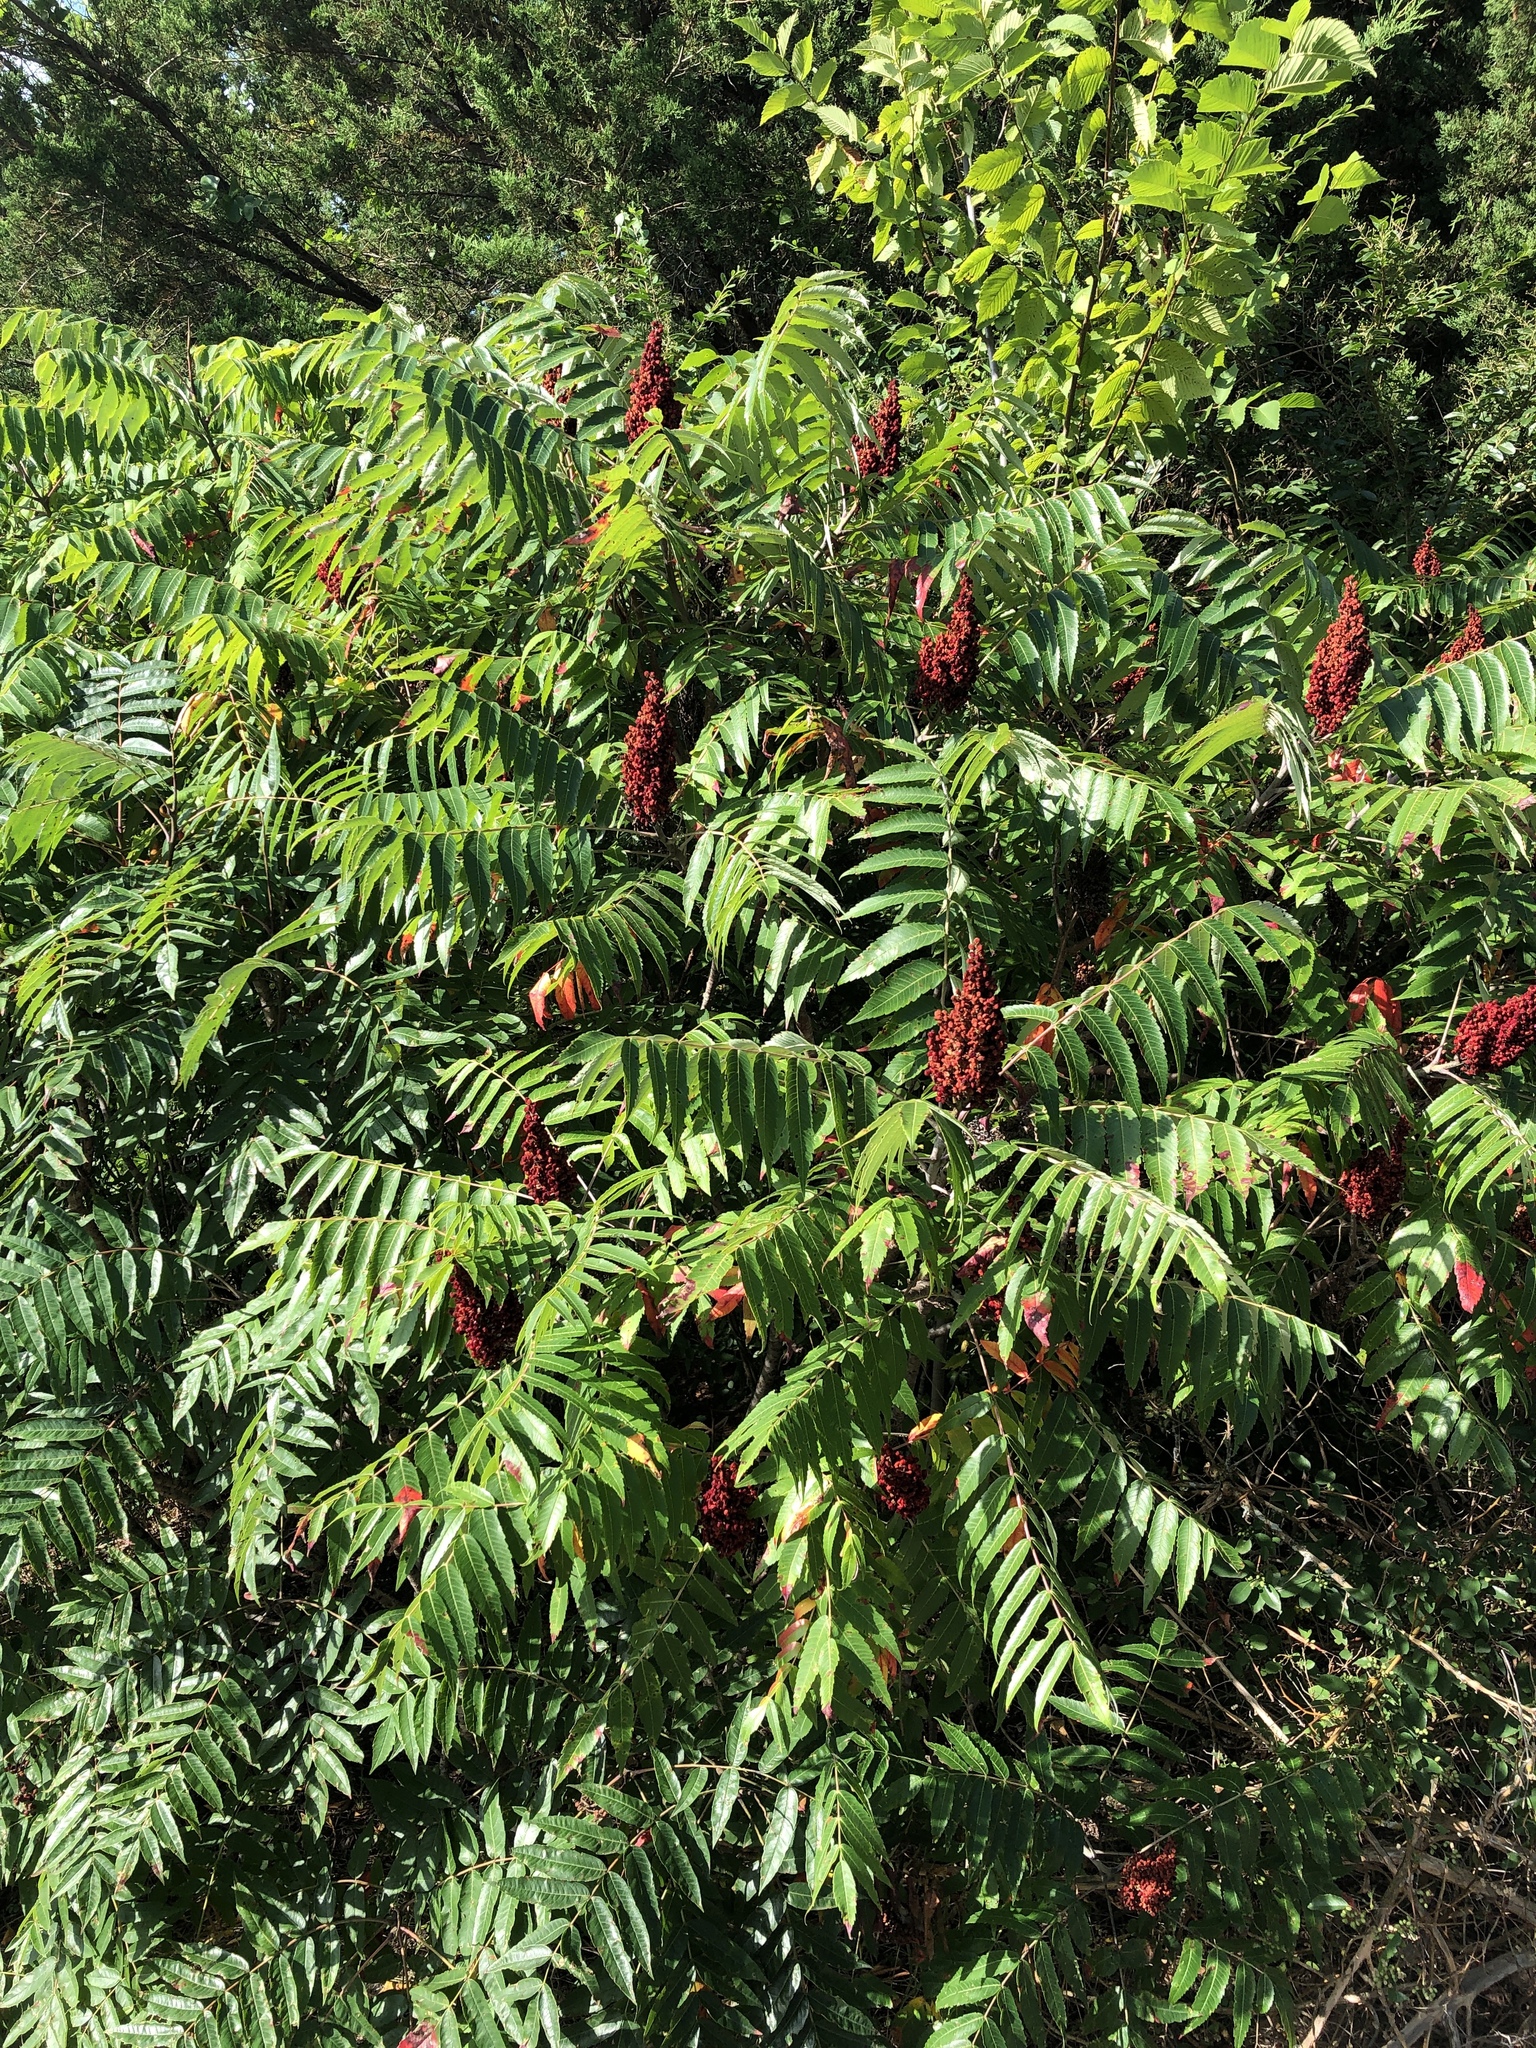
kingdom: Plantae
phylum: Tracheophyta
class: Magnoliopsida
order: Sapindales
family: Anacardiaceae
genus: Rhus
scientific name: Rhus glabra
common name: Scarlet sumac
